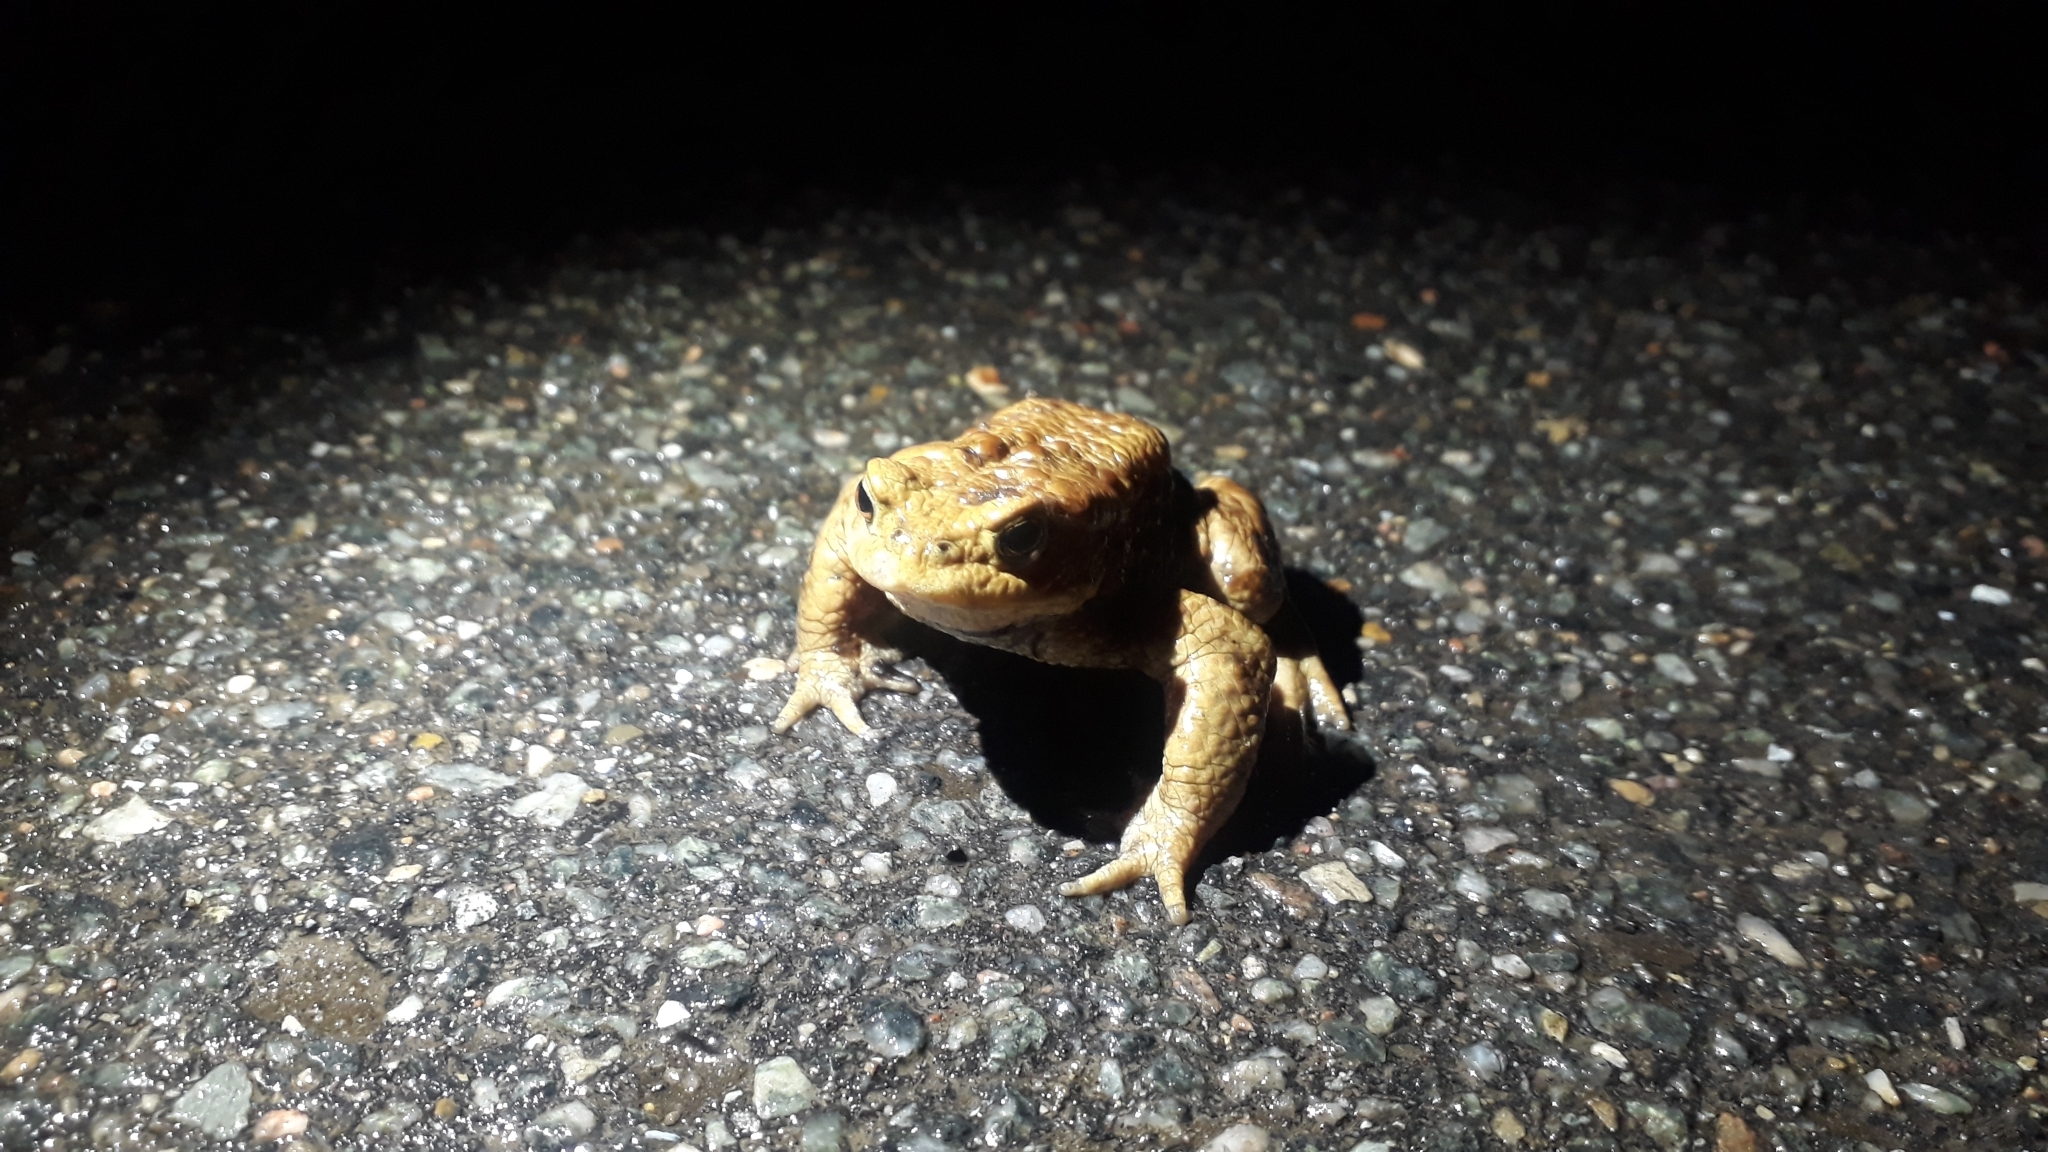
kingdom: Animalia
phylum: Chordata
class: Amphibia
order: Anura
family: Bufonidae
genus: Bufo
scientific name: Bufo bufo
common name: Common toad
